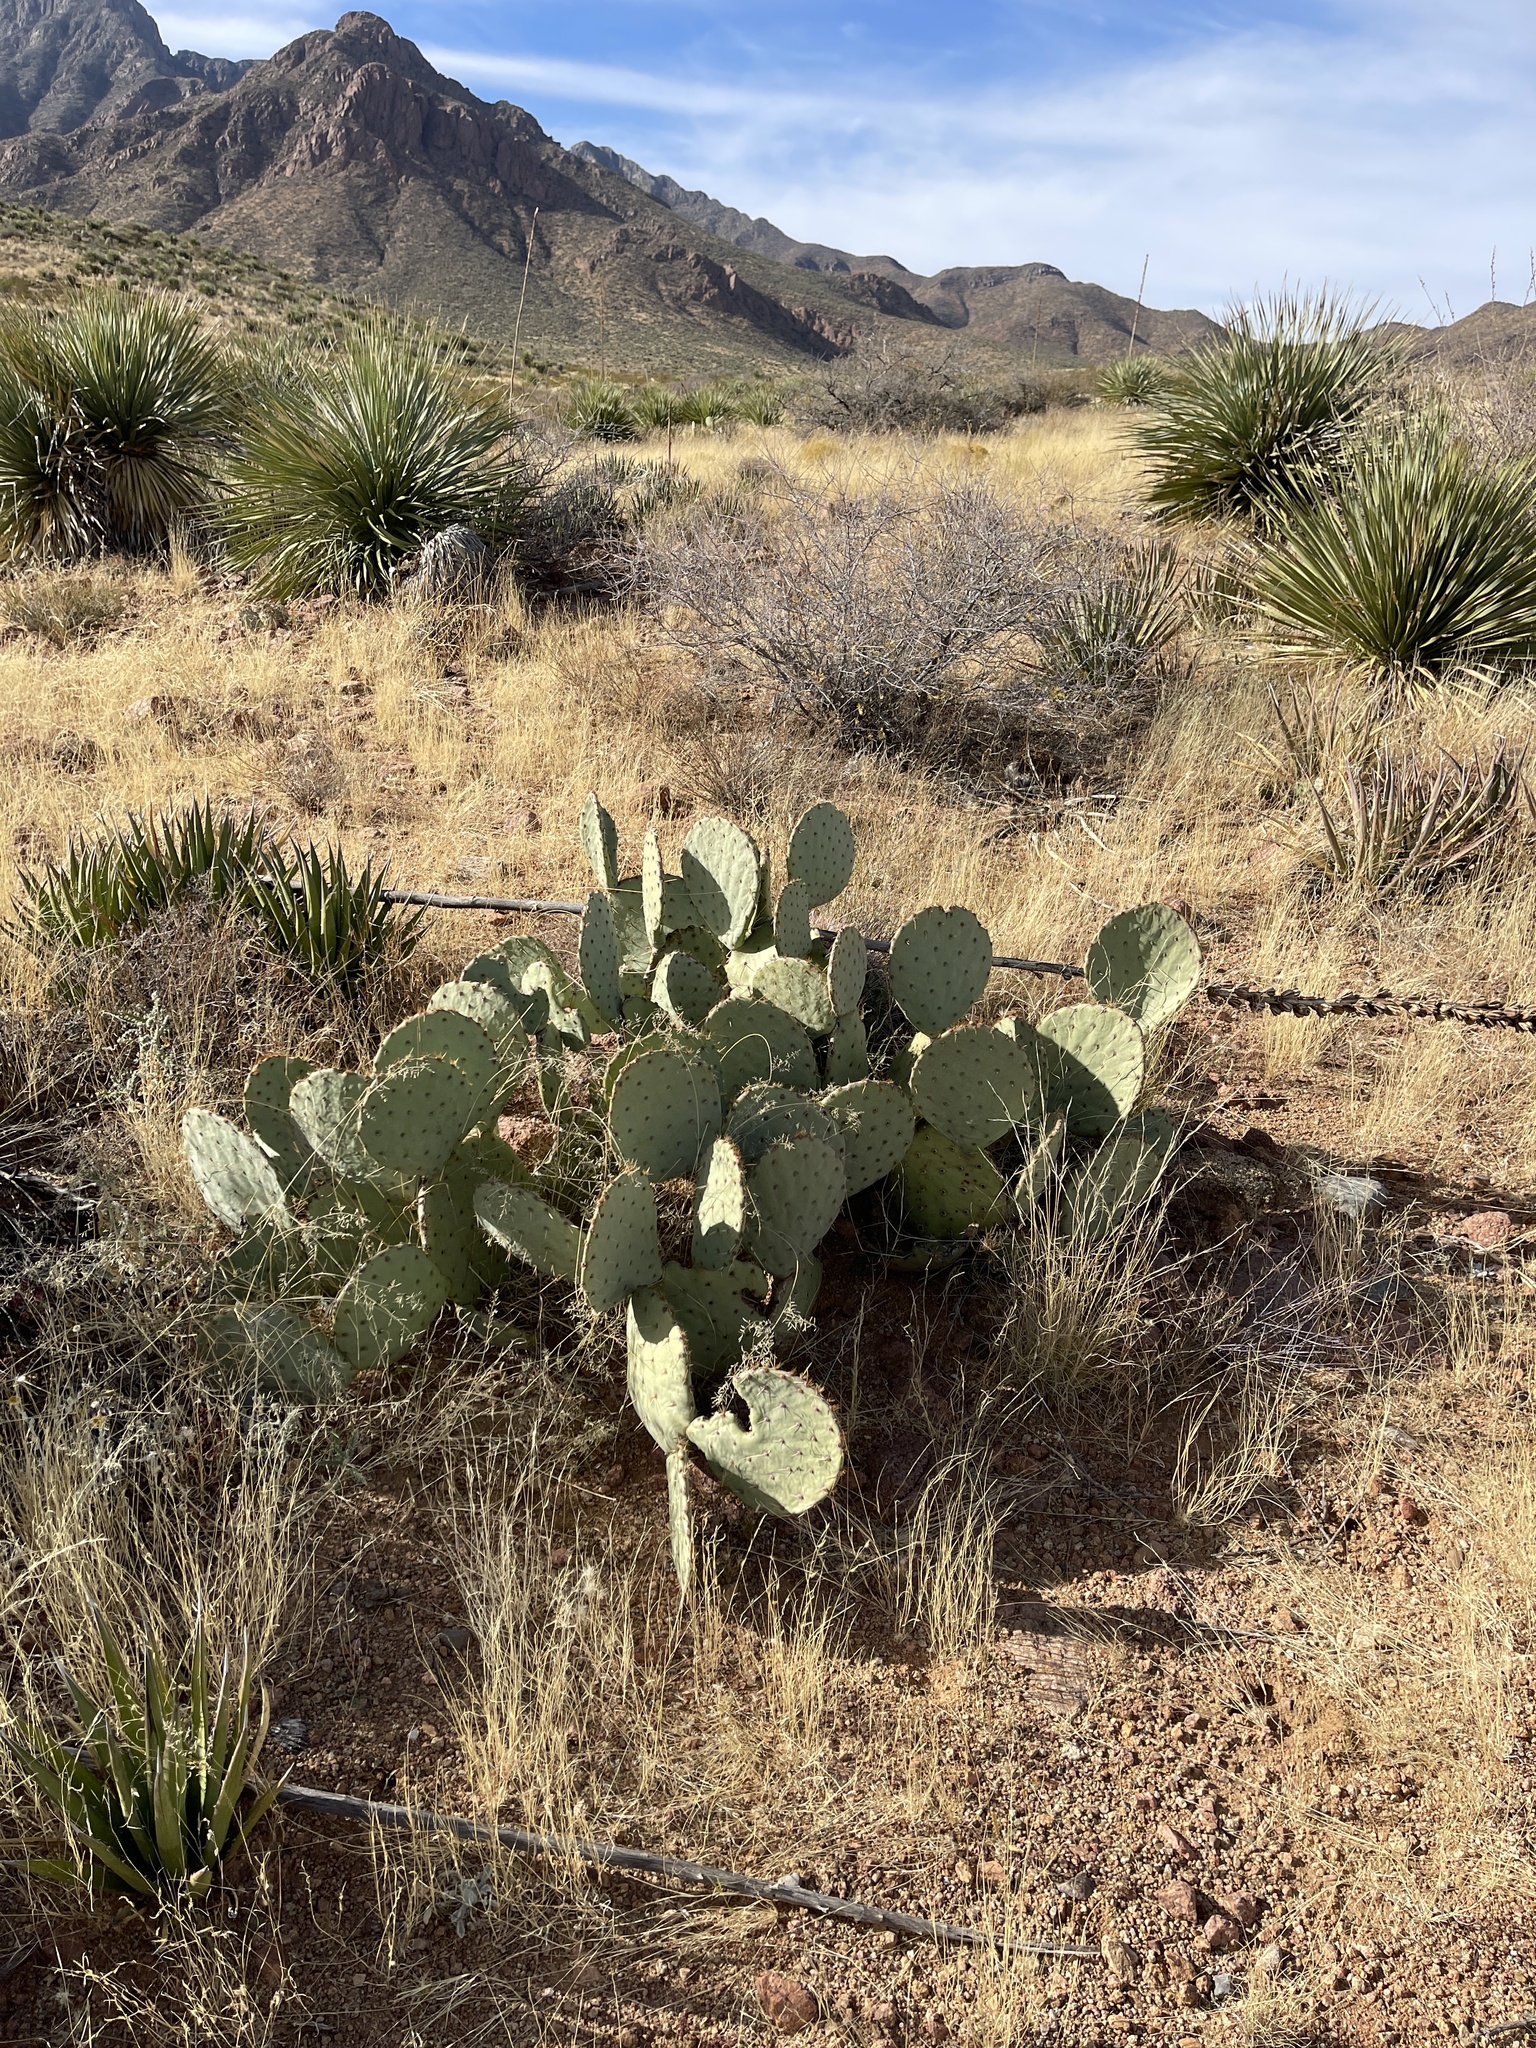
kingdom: Plantae
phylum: Tracheophyta
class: Magnoliopsida
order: Caryophyllales
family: Cactaceae
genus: Opuntia
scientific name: Opuntia engelmannii
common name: Cactus-apple
